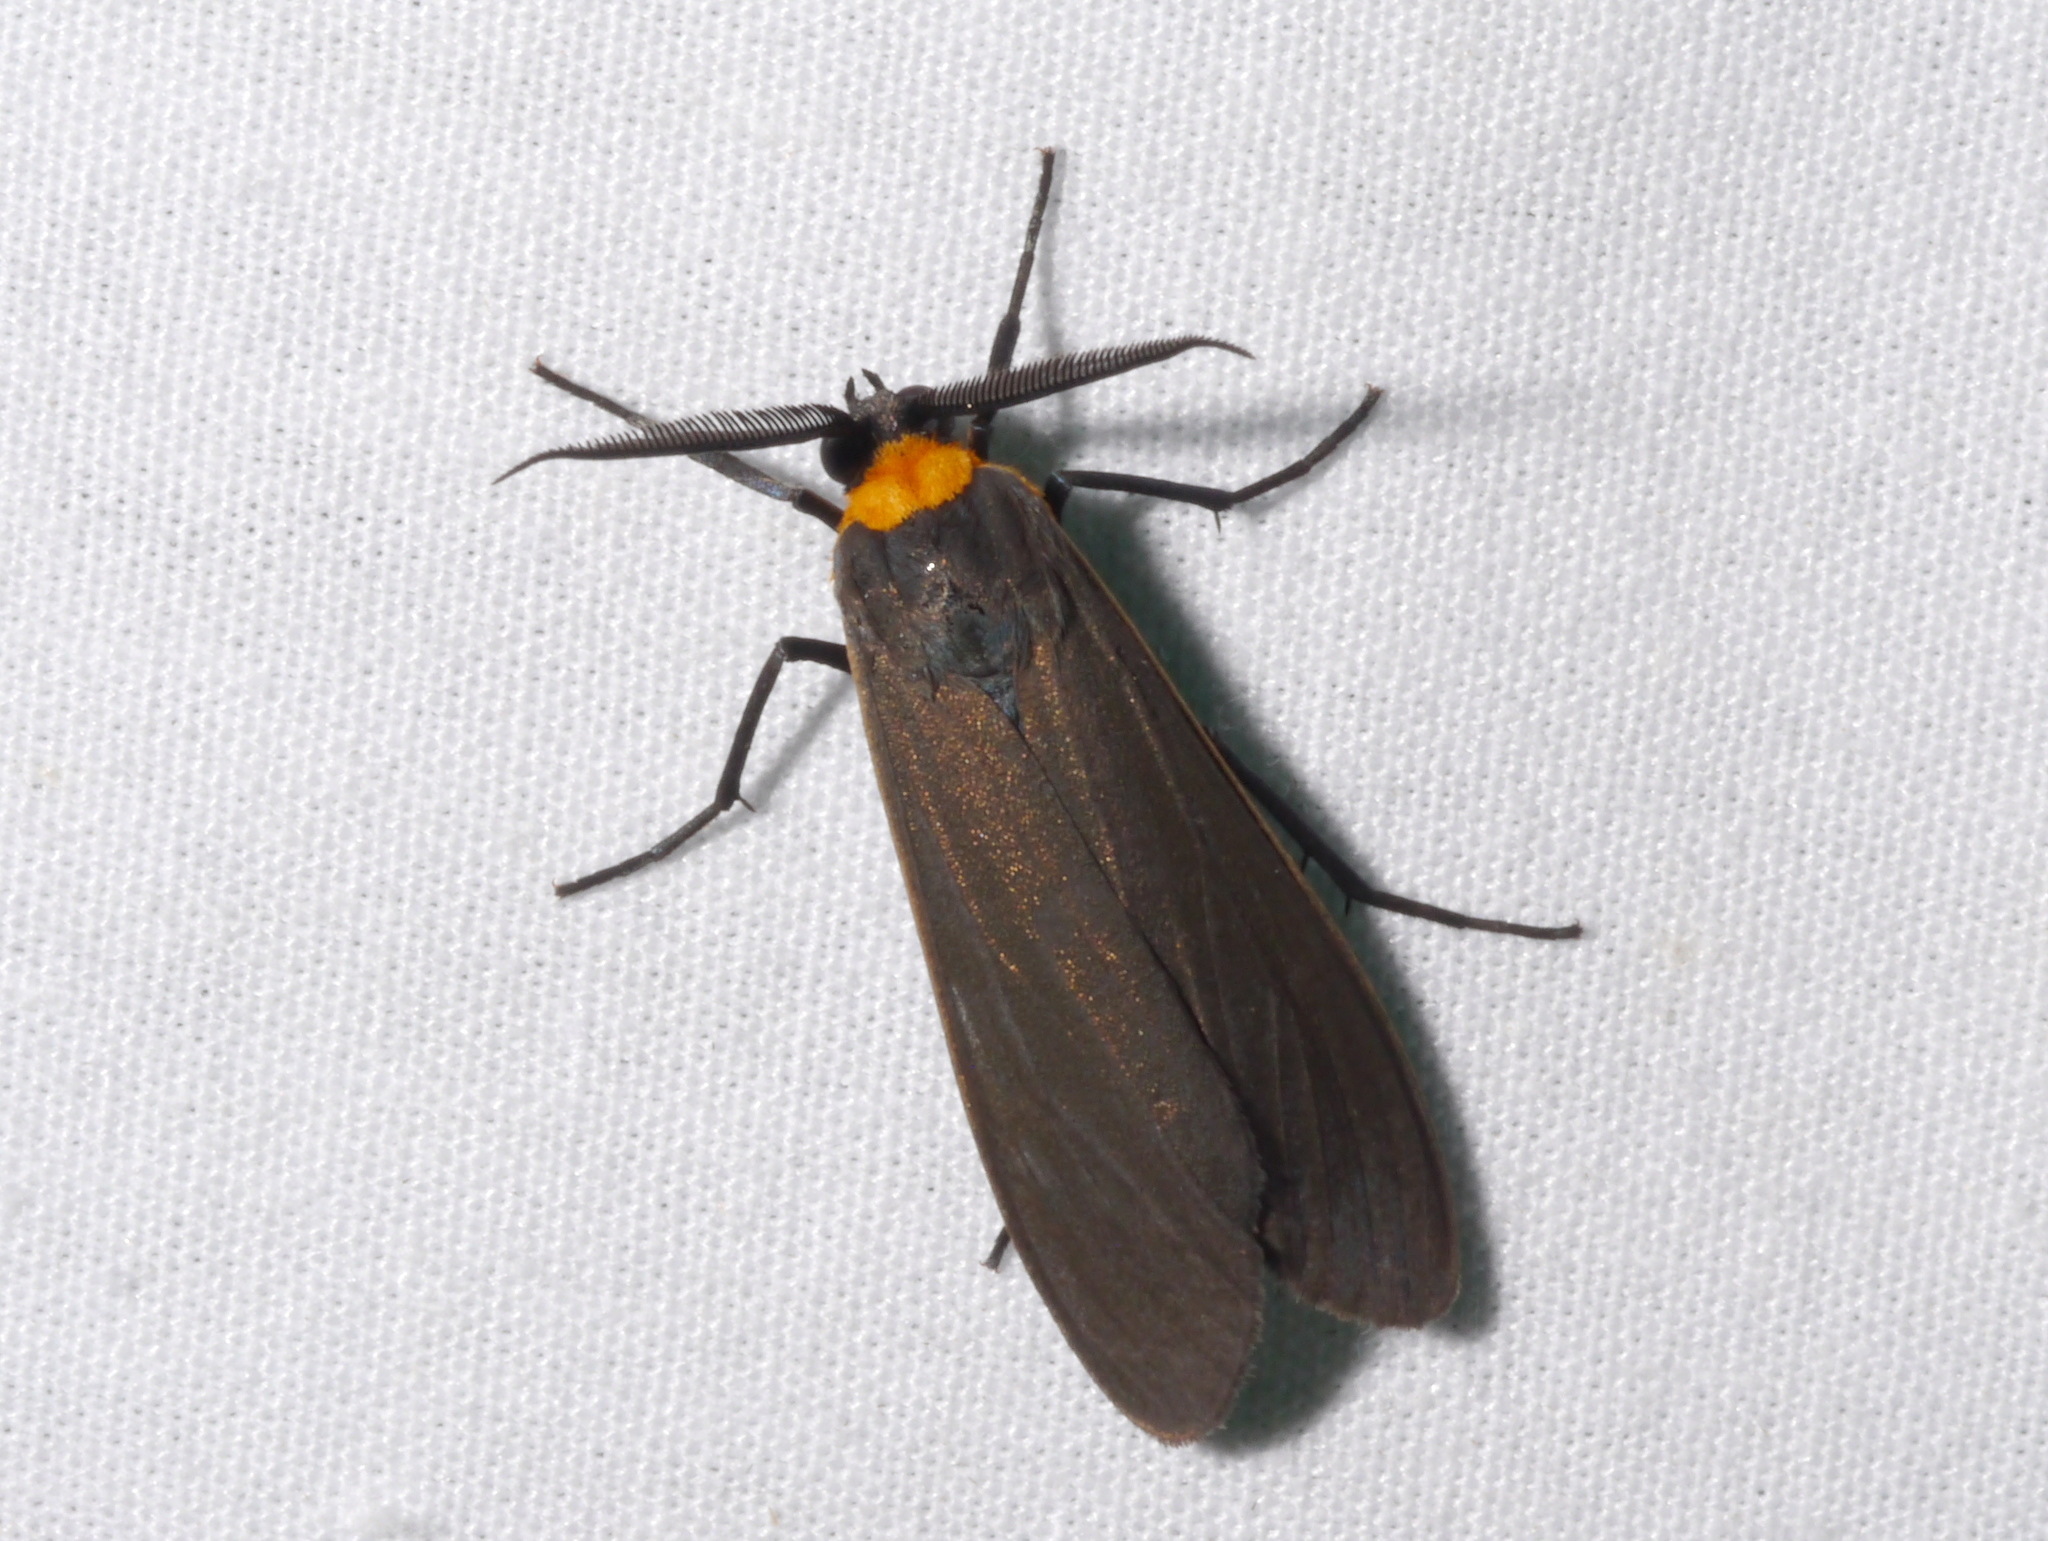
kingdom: Animalia
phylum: Arthropoda
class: Insecta
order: Lepidoptera
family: Erebidae
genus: Cisseps
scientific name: Cisseps fulvicollis
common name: Yellow-collared scape moth
